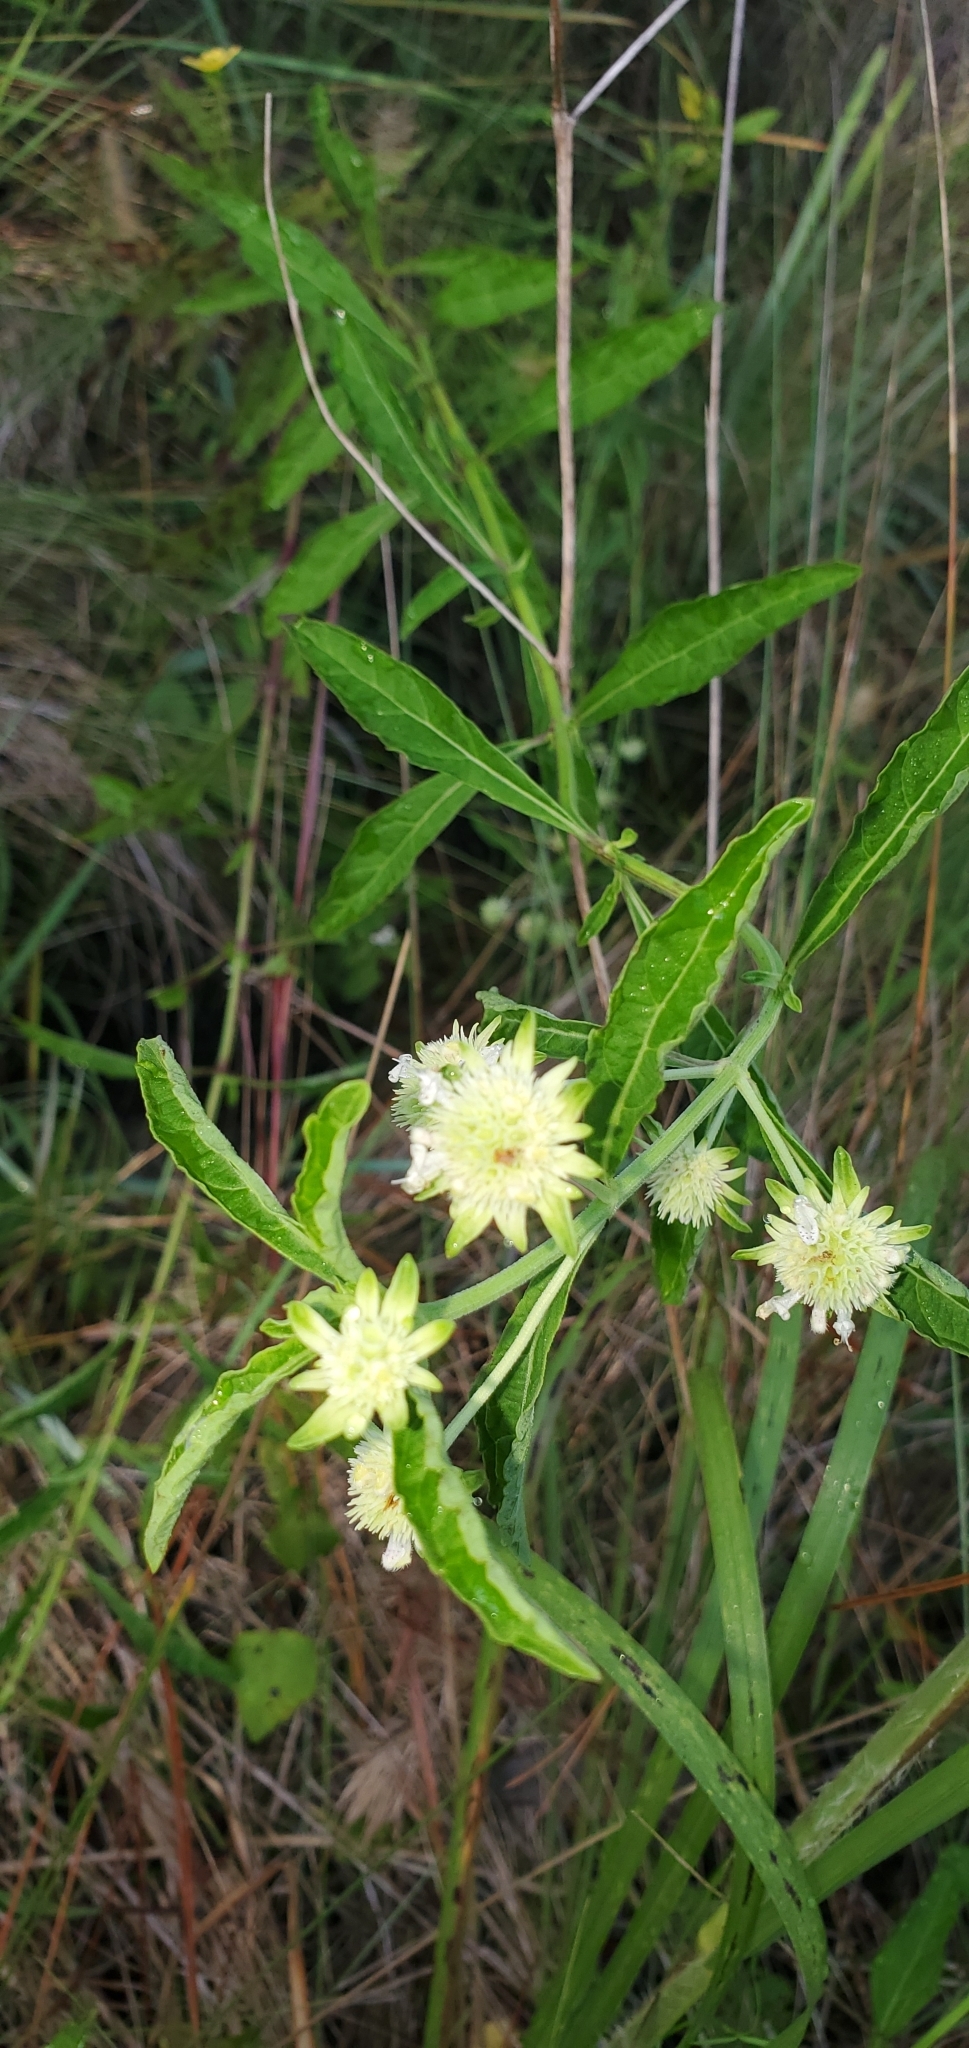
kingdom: Plantae
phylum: Tracheophyta
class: Magnoliopsida
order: Lamiales
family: Lamiaceae
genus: Hyptis
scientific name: Hyptis alata
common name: Cluster bush-mint
